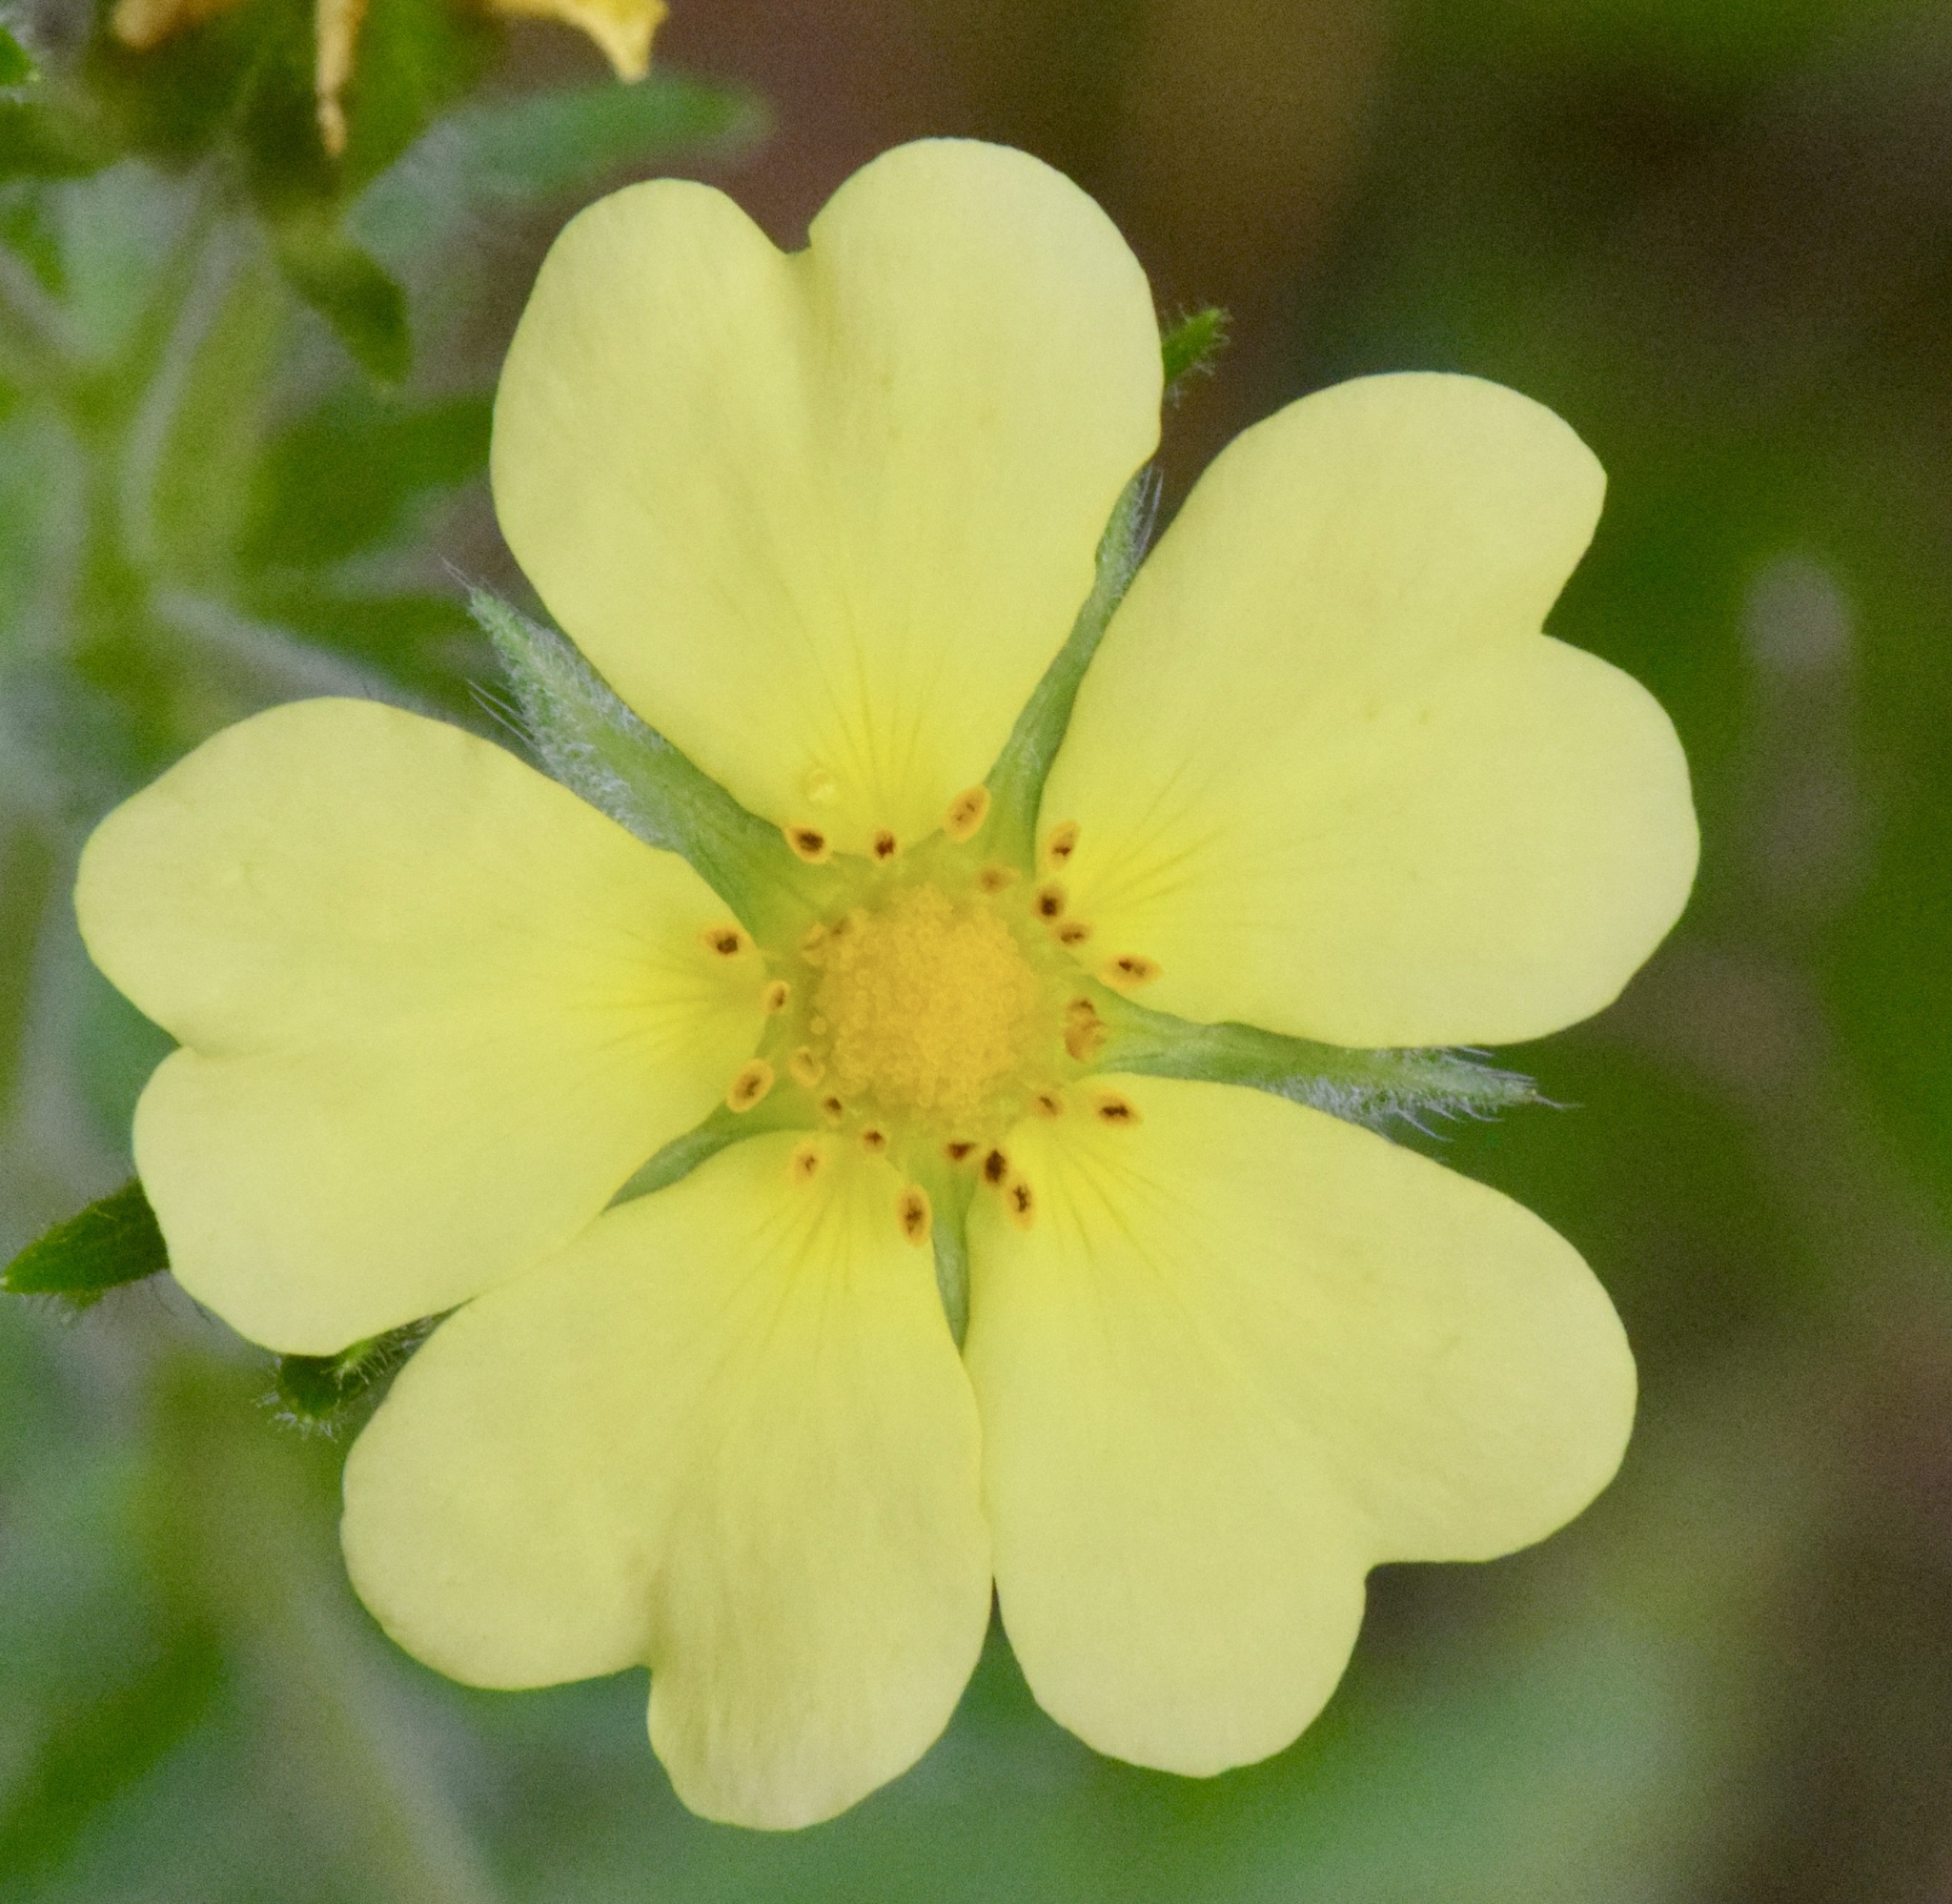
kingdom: Plantae
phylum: Tracheophyta
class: Magnoliopsida
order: Rosales
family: Rosaceae
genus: Potentilla
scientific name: Potentilla recta
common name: Sulphur cinquefoil
